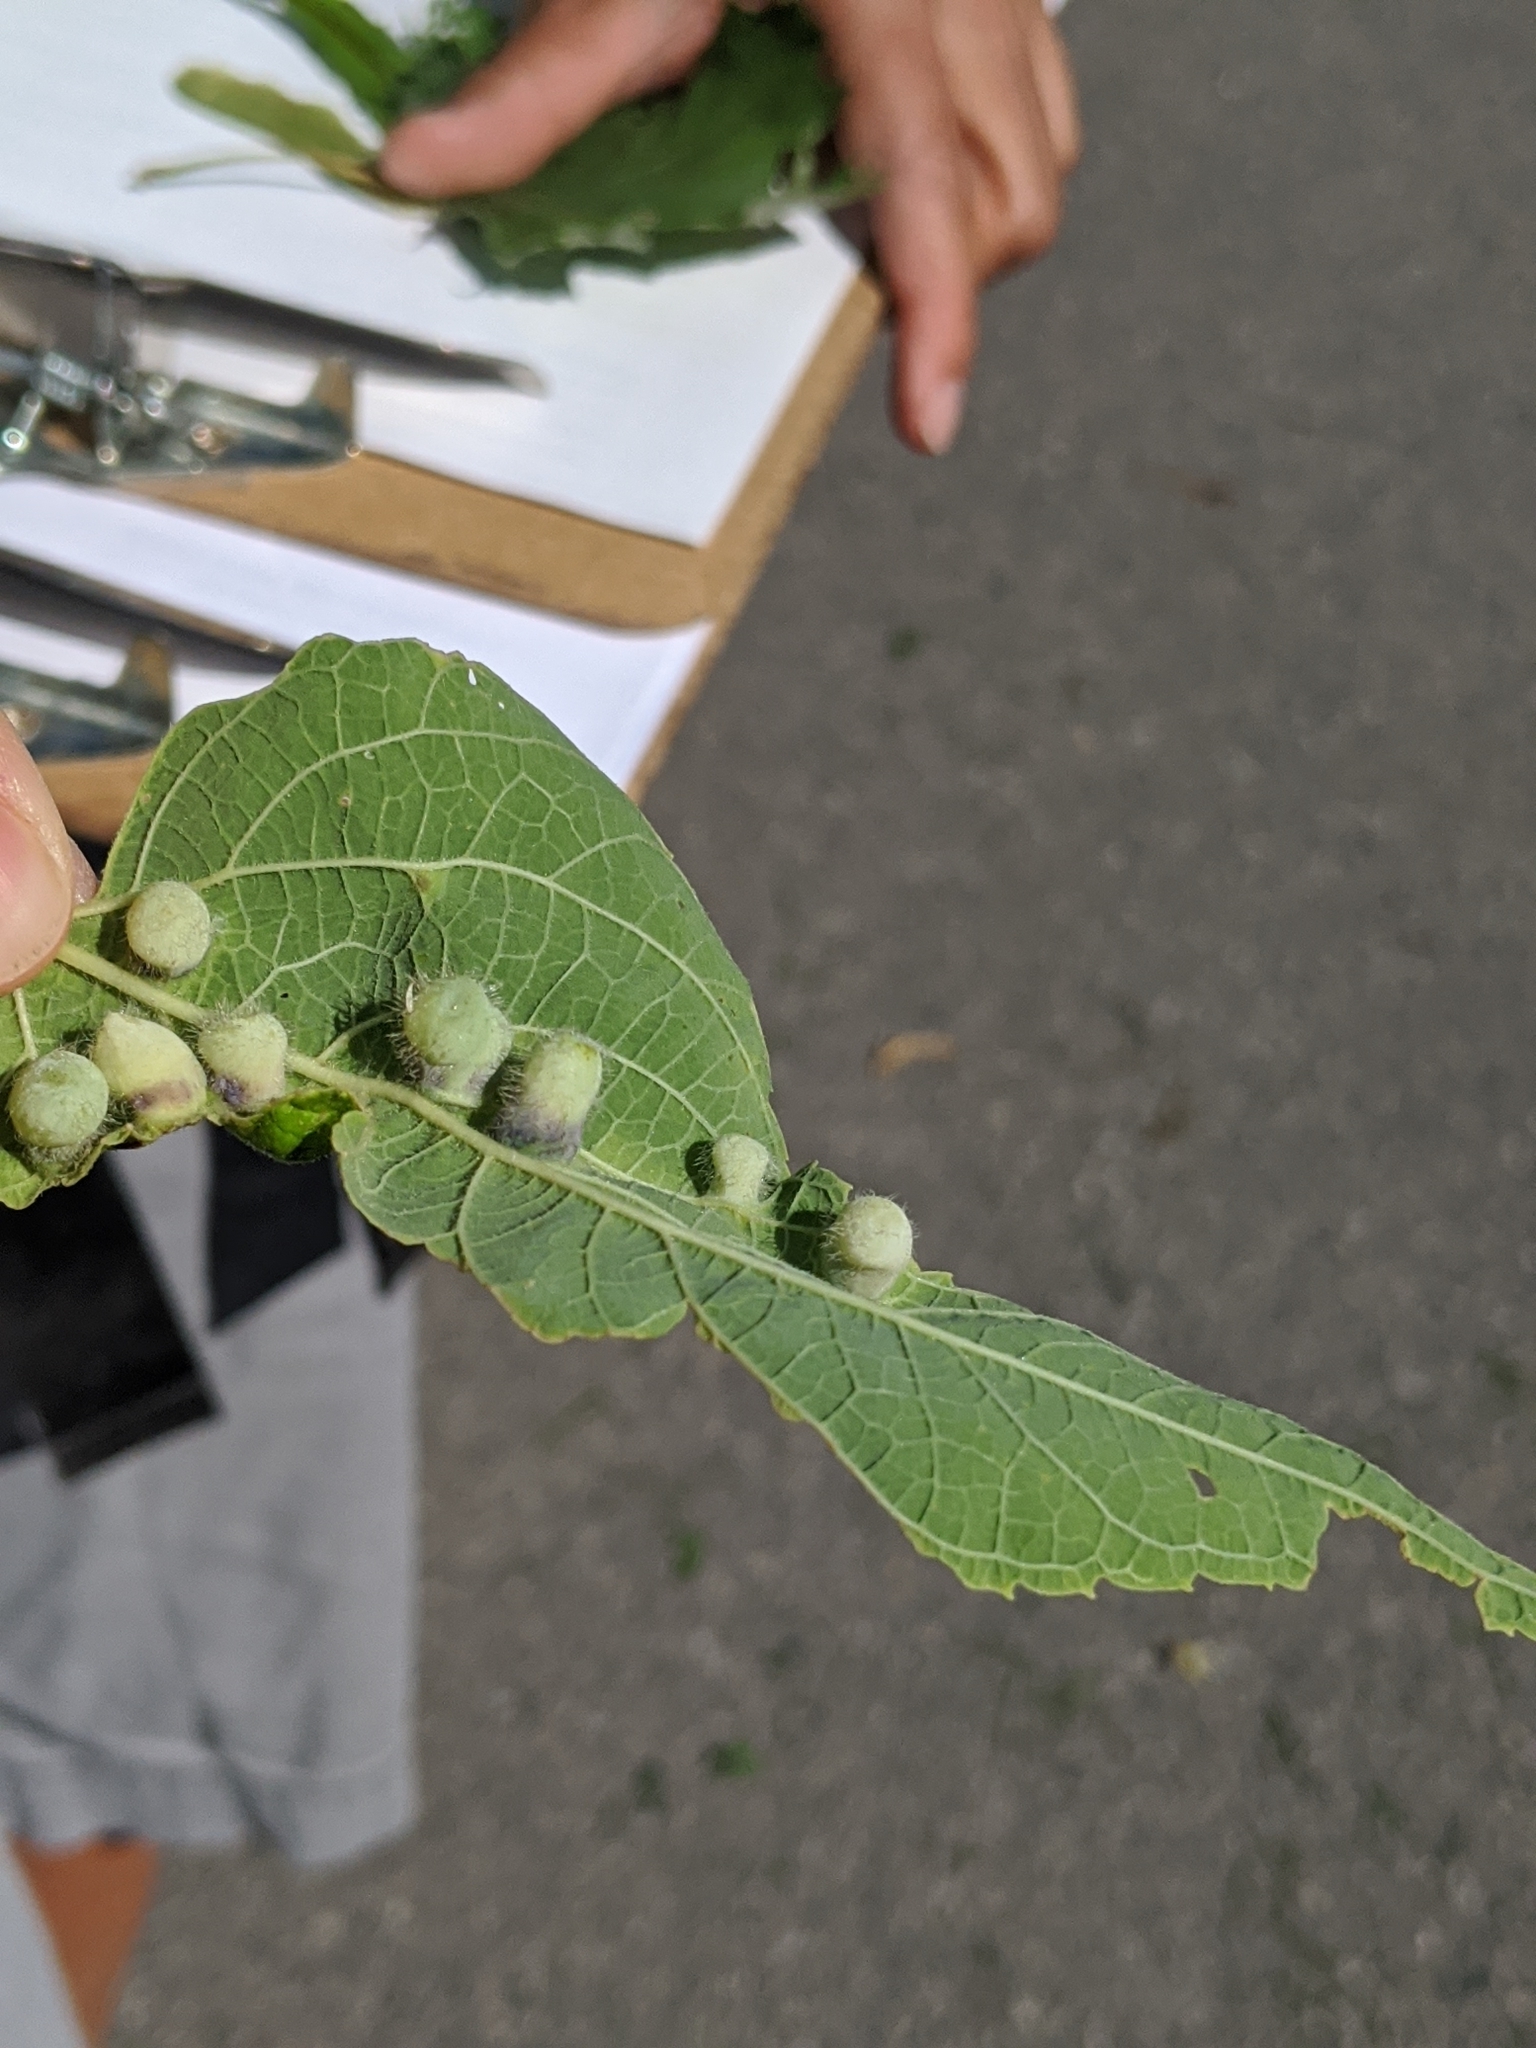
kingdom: Animalia
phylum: Arthropoda
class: Insecta
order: Hemiptera
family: Aphalaridae
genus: Pachypsylla
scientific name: Pachypsylla celtidismamma
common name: Hackberry nipplegall psyllid
